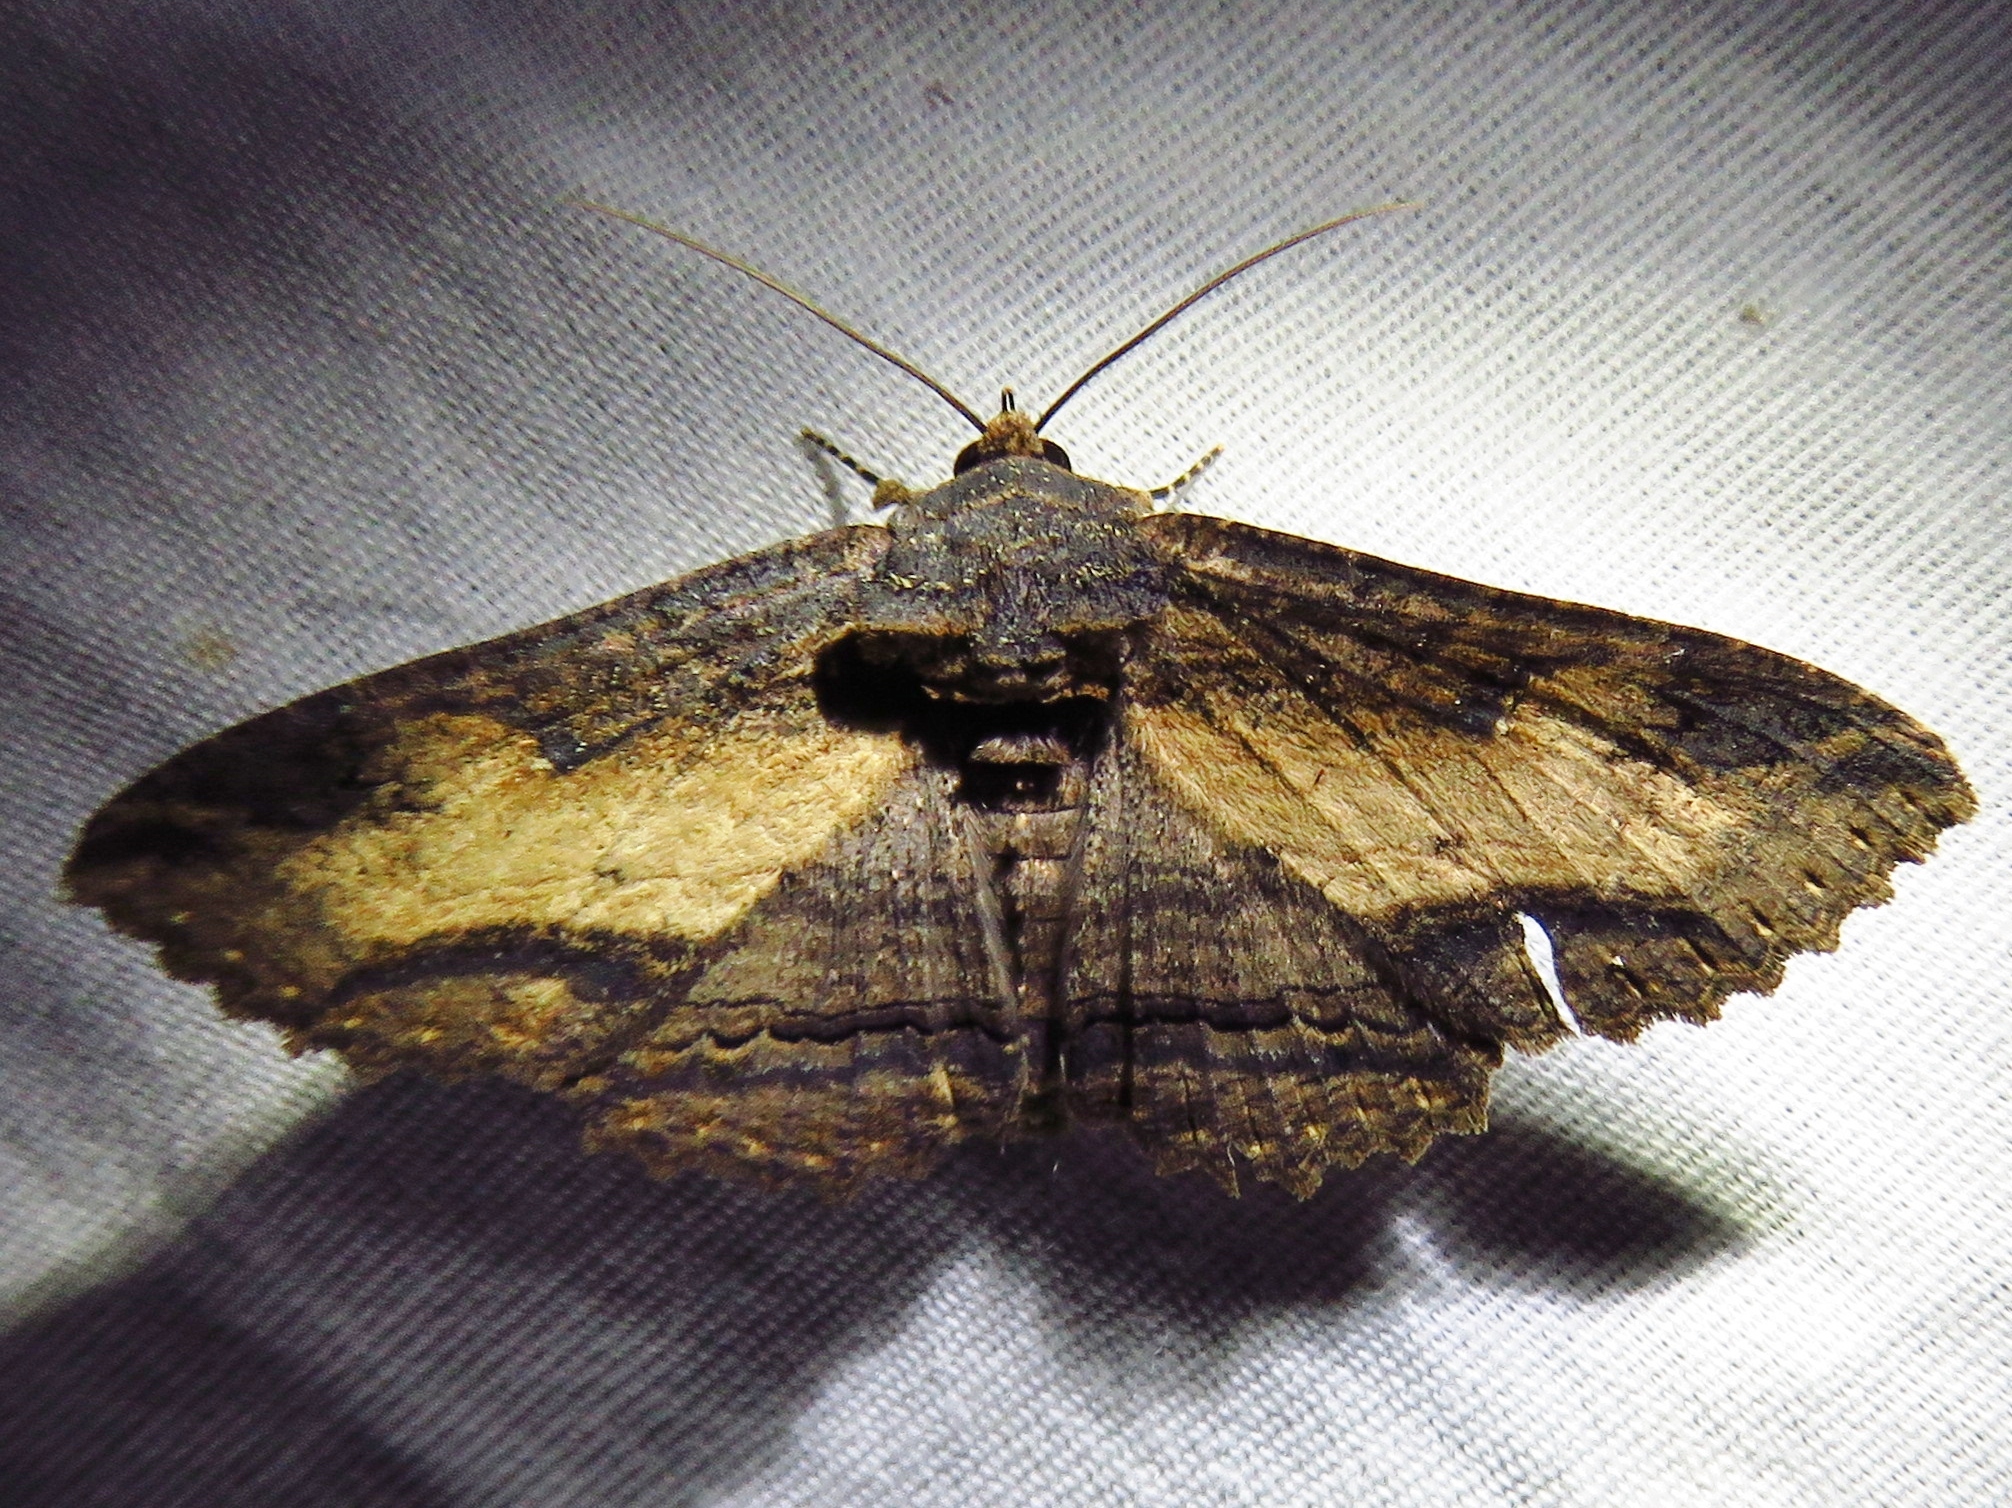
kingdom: Animalia
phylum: Arthropoda
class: Insecta
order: Lepidoptera
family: Erebidae
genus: Zale
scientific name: Zale lunata
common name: Lunate zale moth
